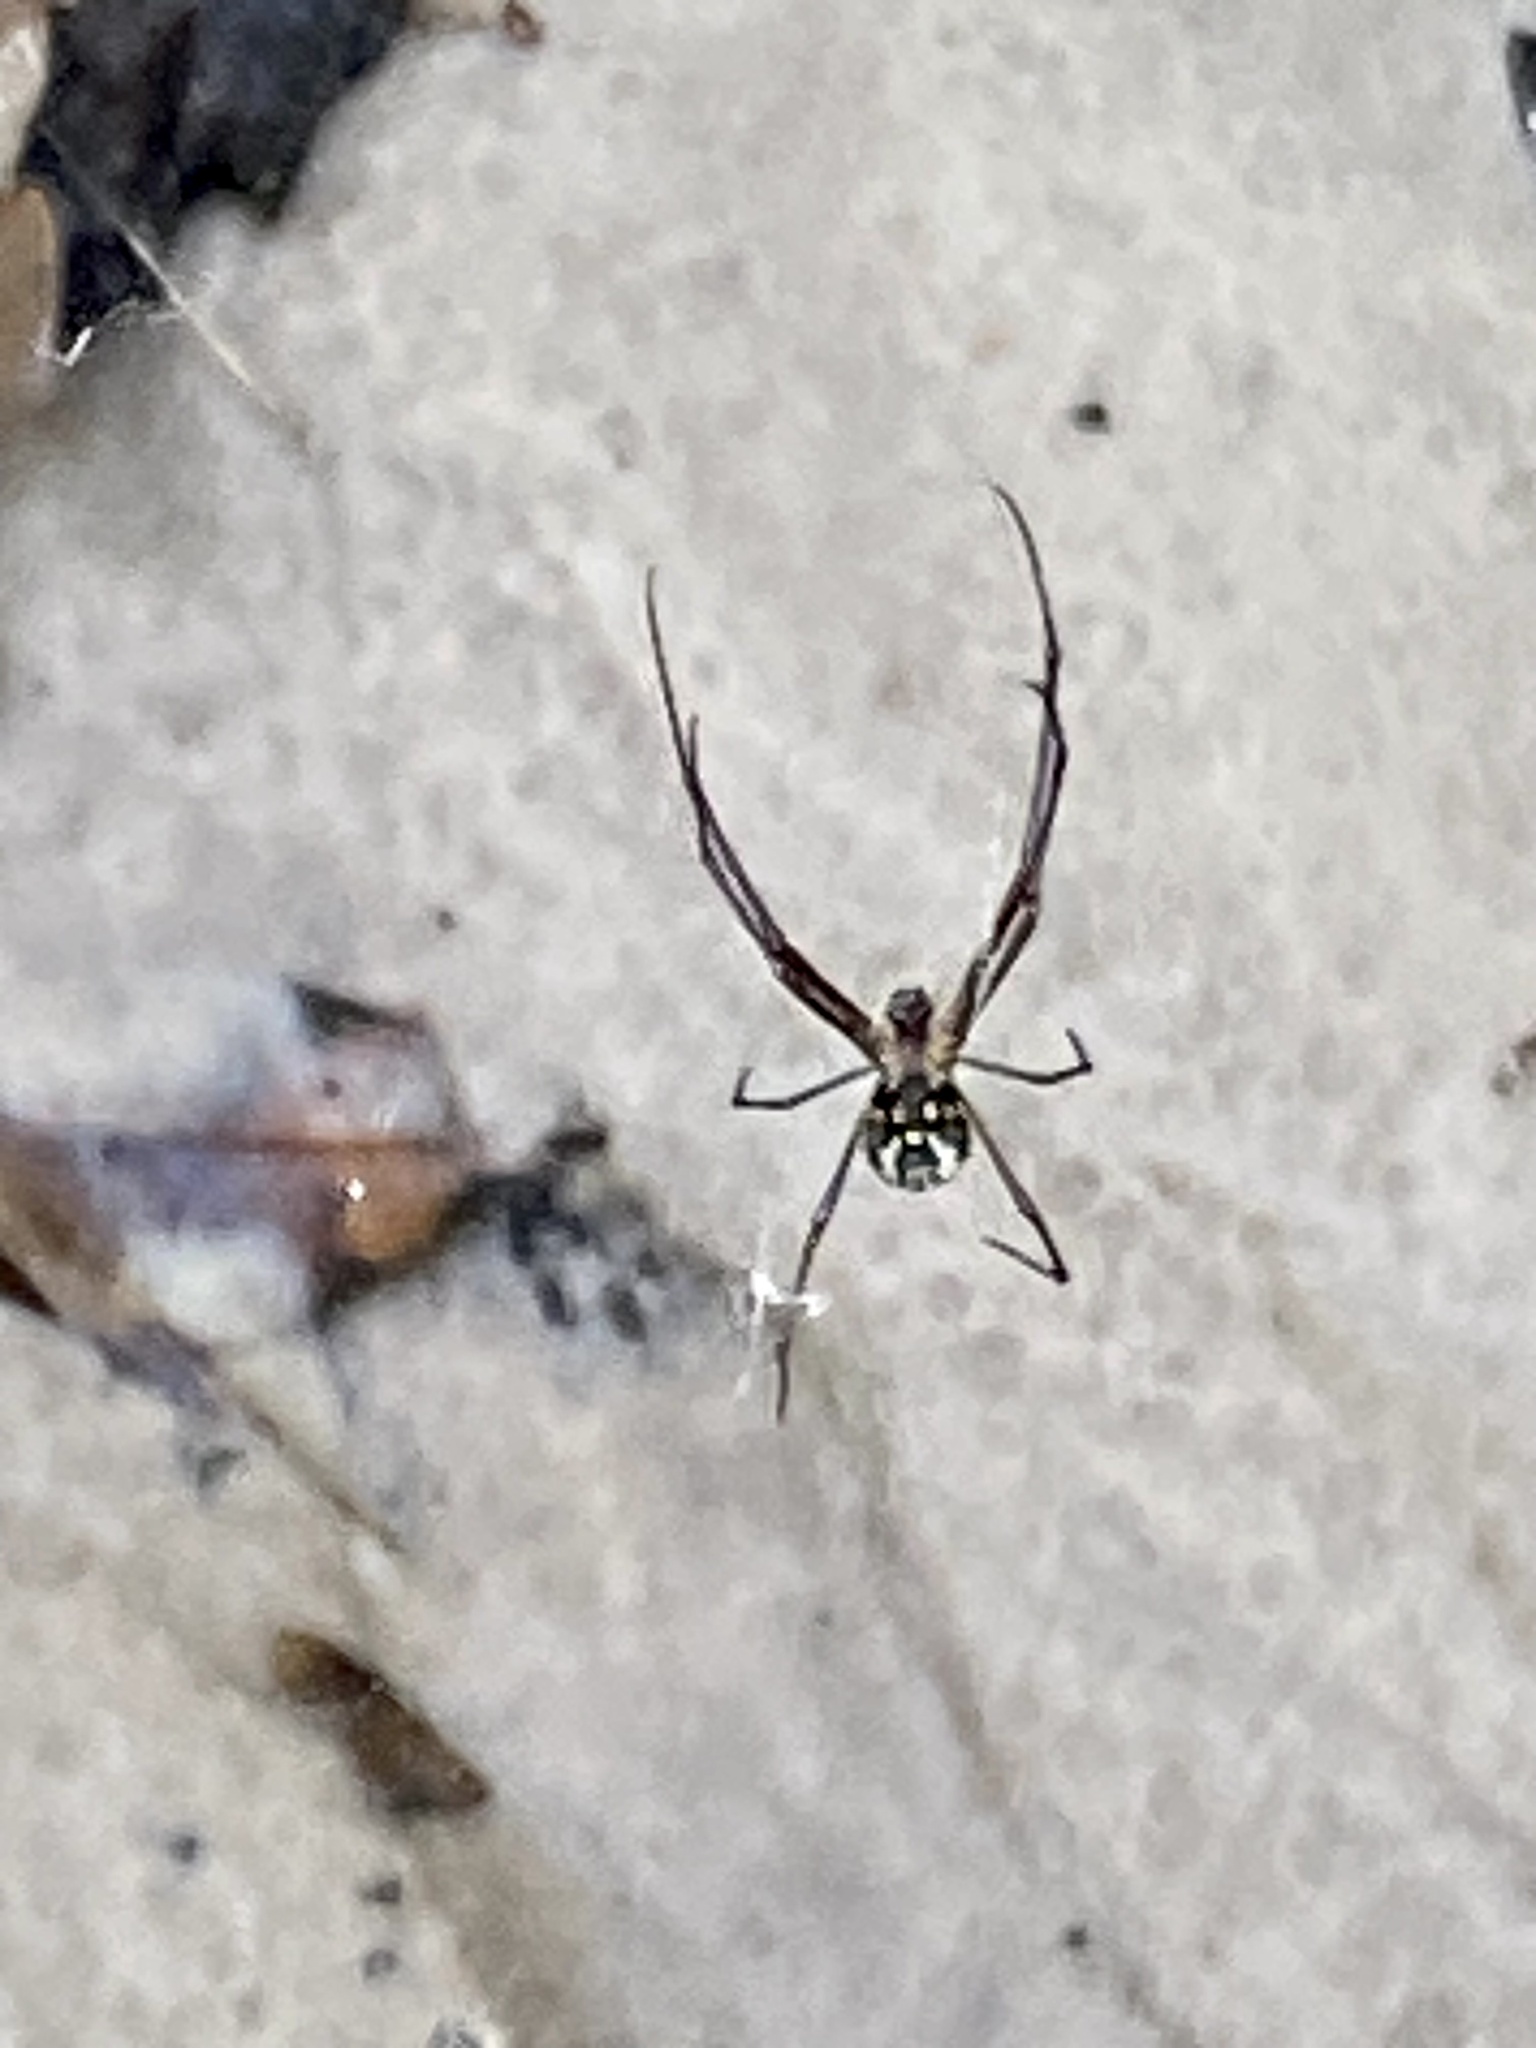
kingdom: Animalia
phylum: Arthropoda
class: Arachnida
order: Araneae
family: Tetragnathidae
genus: Leucauge
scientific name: Leucauge argyra
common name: Longjawed orb weavers
